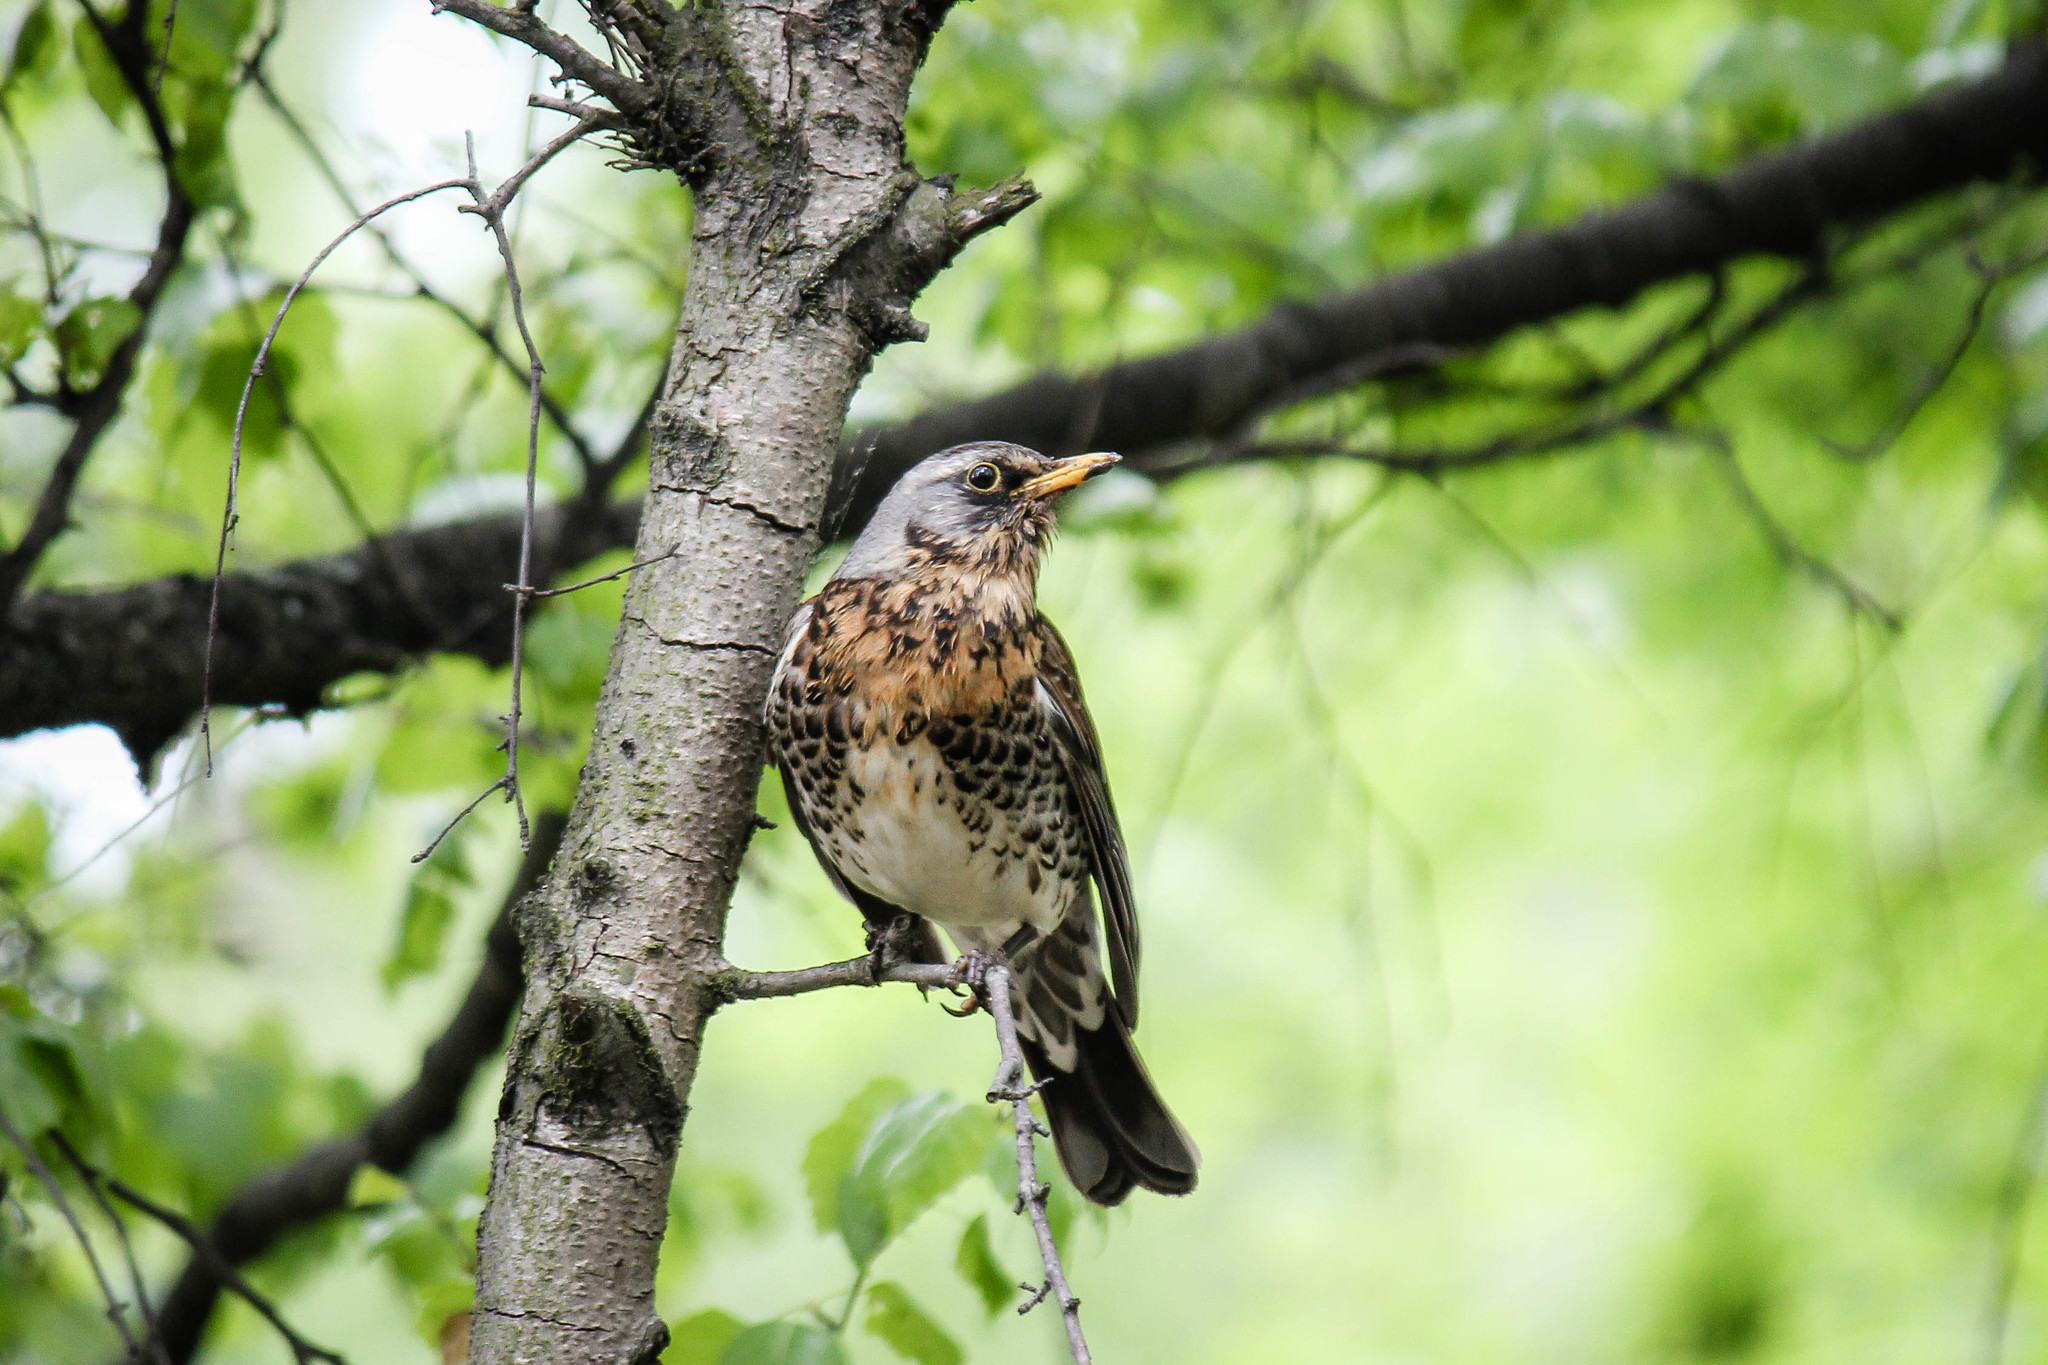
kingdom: Animalia
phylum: Chordata
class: Aves
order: Passeriformes
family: Turdidae
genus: Turdus
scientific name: Turdus pilaris
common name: Fieldfare
